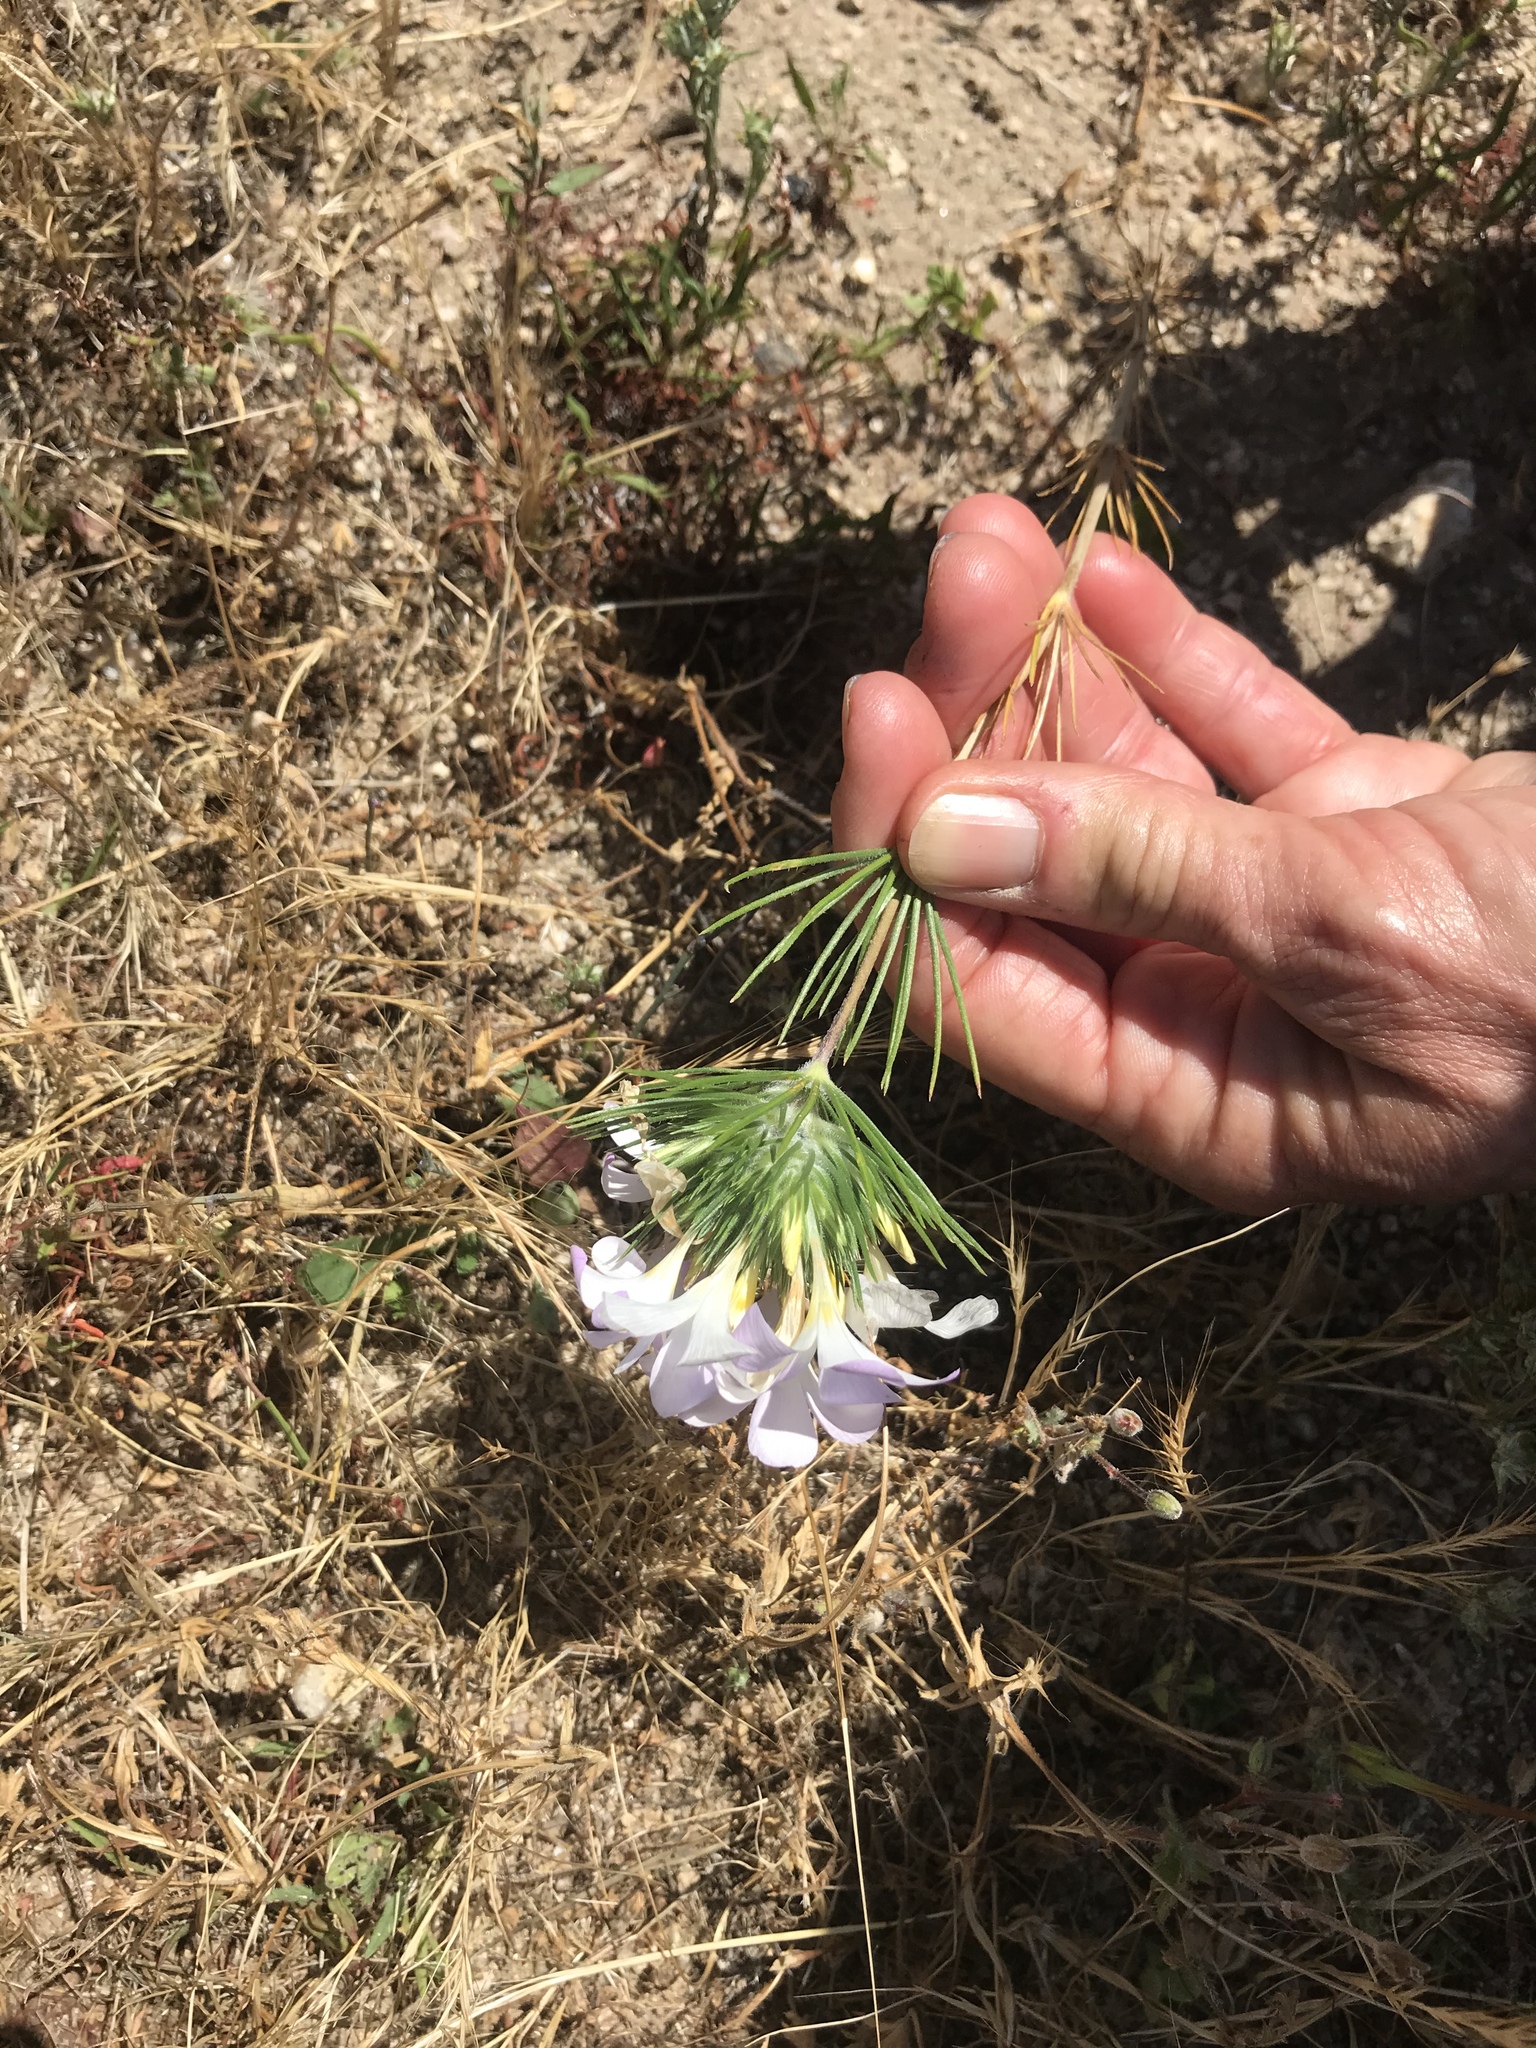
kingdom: Plantae
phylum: Tracheophyta
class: Magnoliopsida
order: Ericales
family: Polemoniaceae
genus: Leptosiphon
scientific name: Leptosiphon grandiflorus
